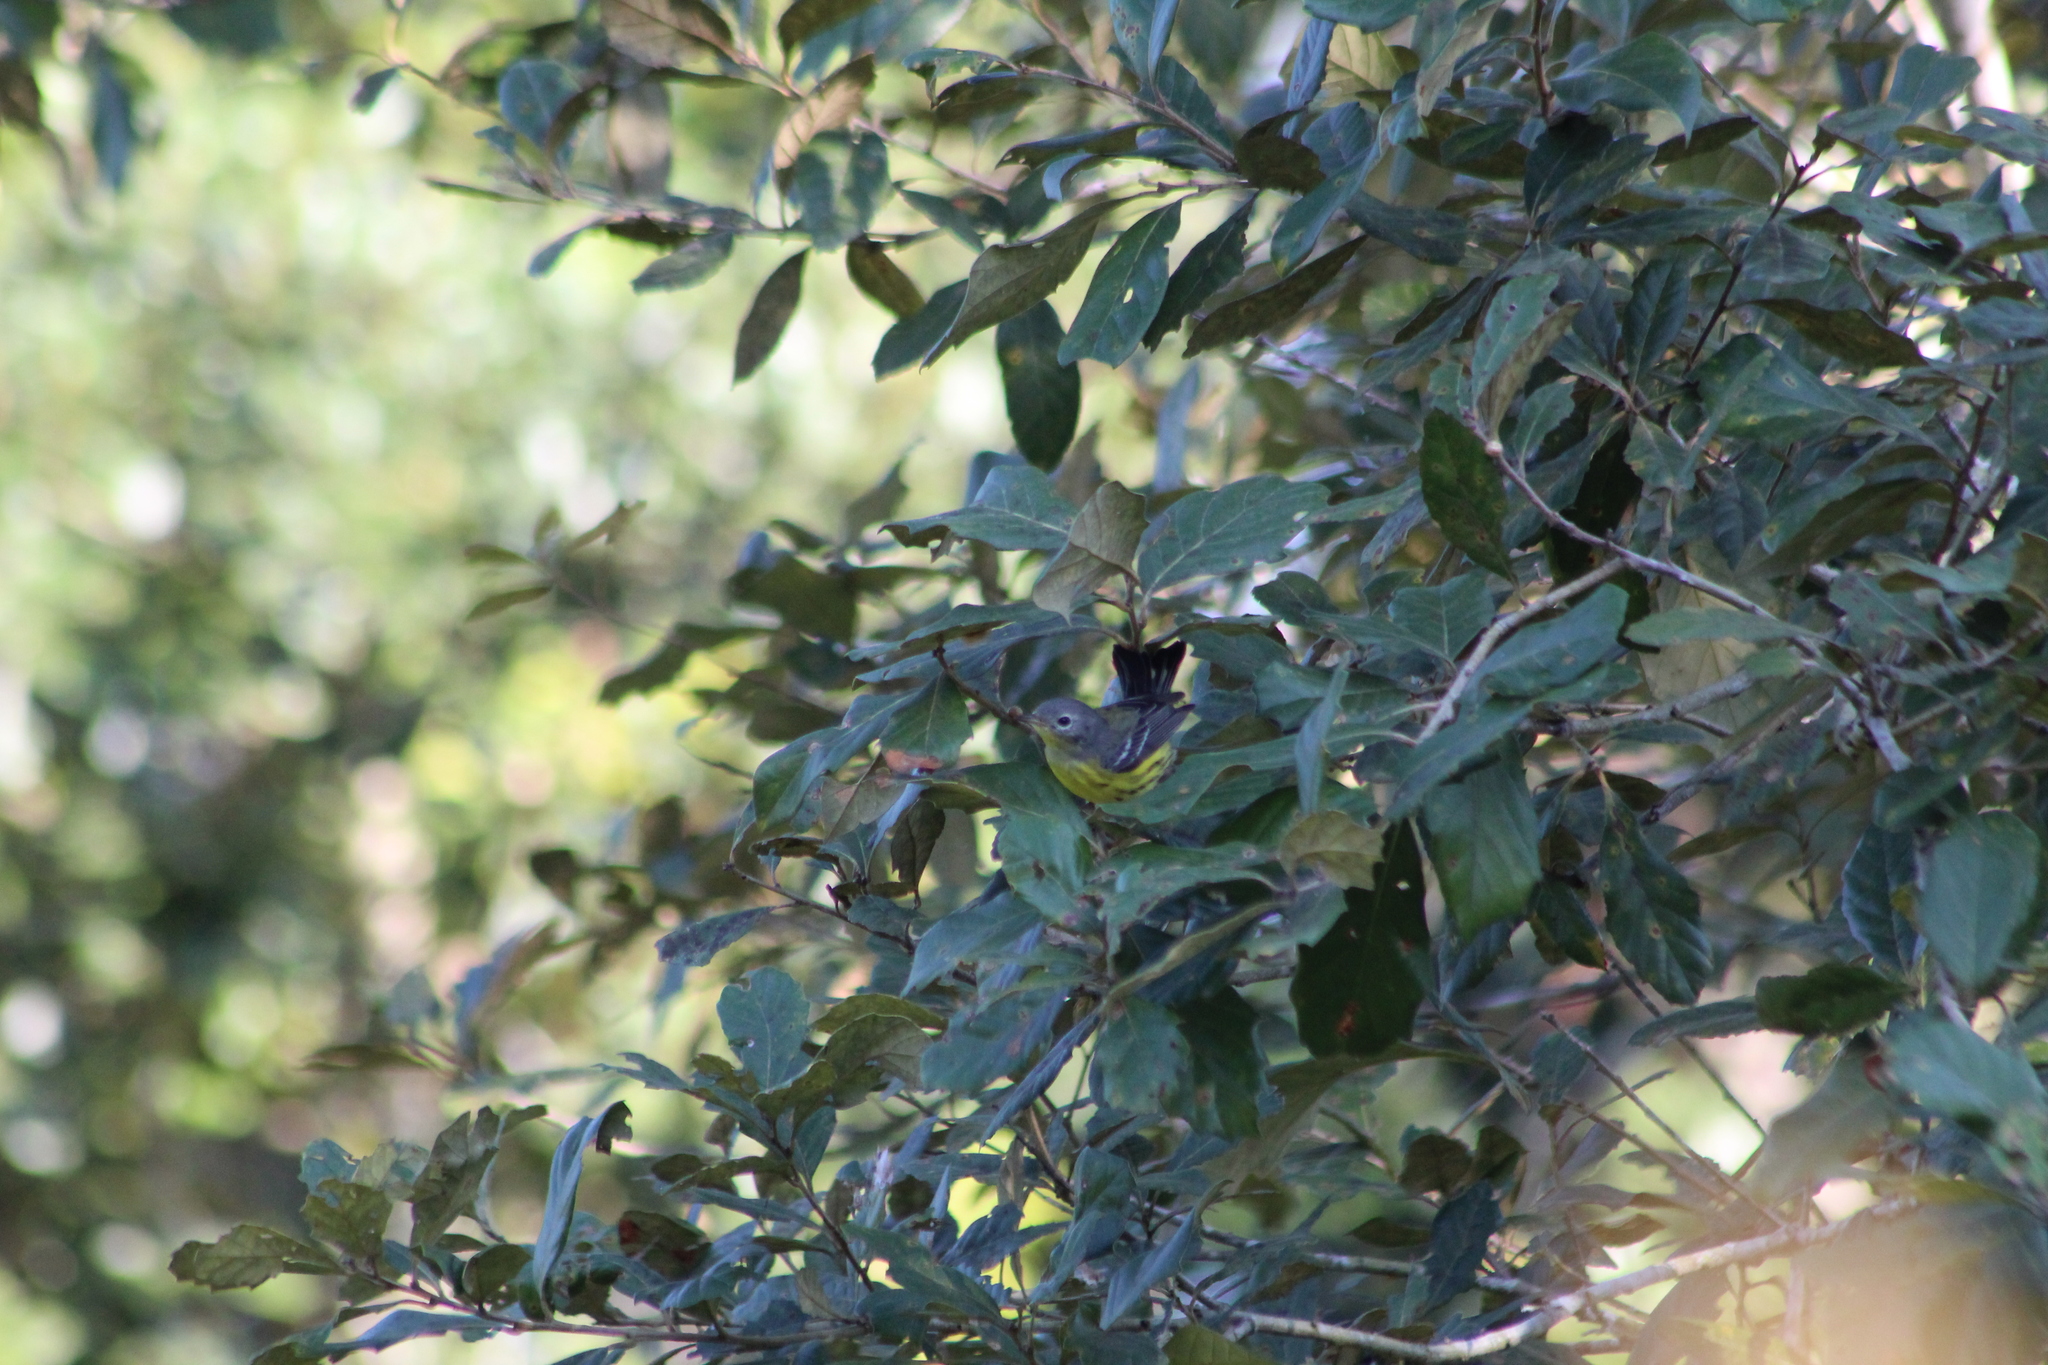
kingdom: Animalia
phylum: Chordata
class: Aves
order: Passeriformes
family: Parulidae
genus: Setophaga
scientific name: Setophaga magnolia
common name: Magnolia warbler
